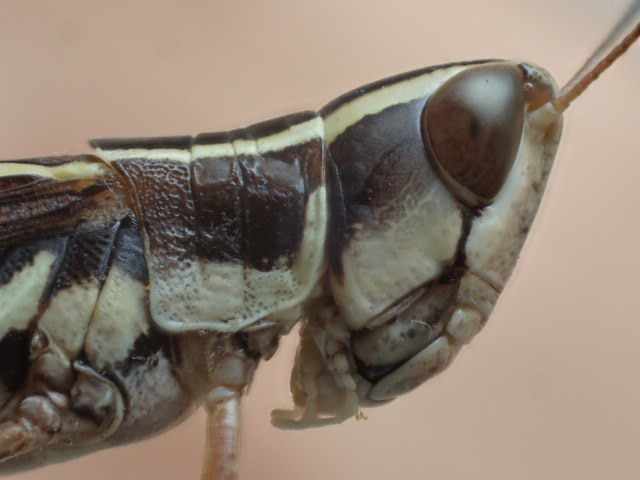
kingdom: Animalia
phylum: Arthropoda
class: Insecta
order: Orthoptera
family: Acrididae
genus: Macrotona
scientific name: Macrotona
